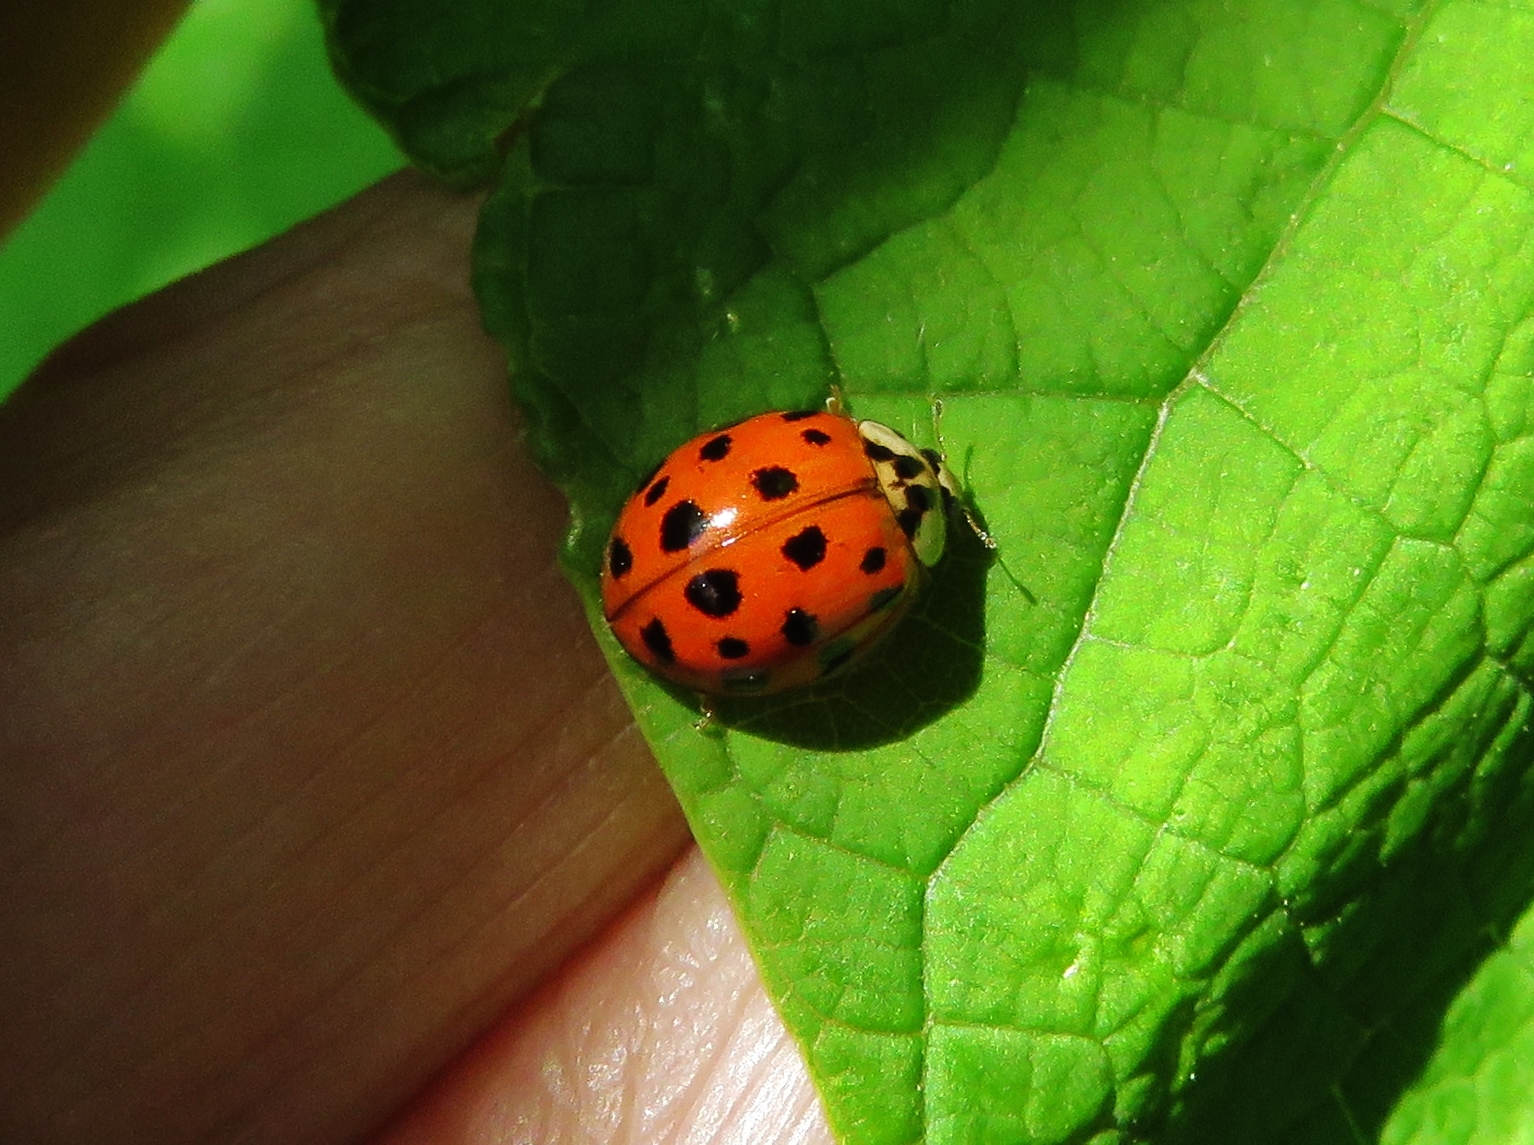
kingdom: Animalia
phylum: Arthropoda
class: Insecta
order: Coleoptera
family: Coccinellidae
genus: Harmonia
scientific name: Harmonia axyridis
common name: Harlequin ladybird
